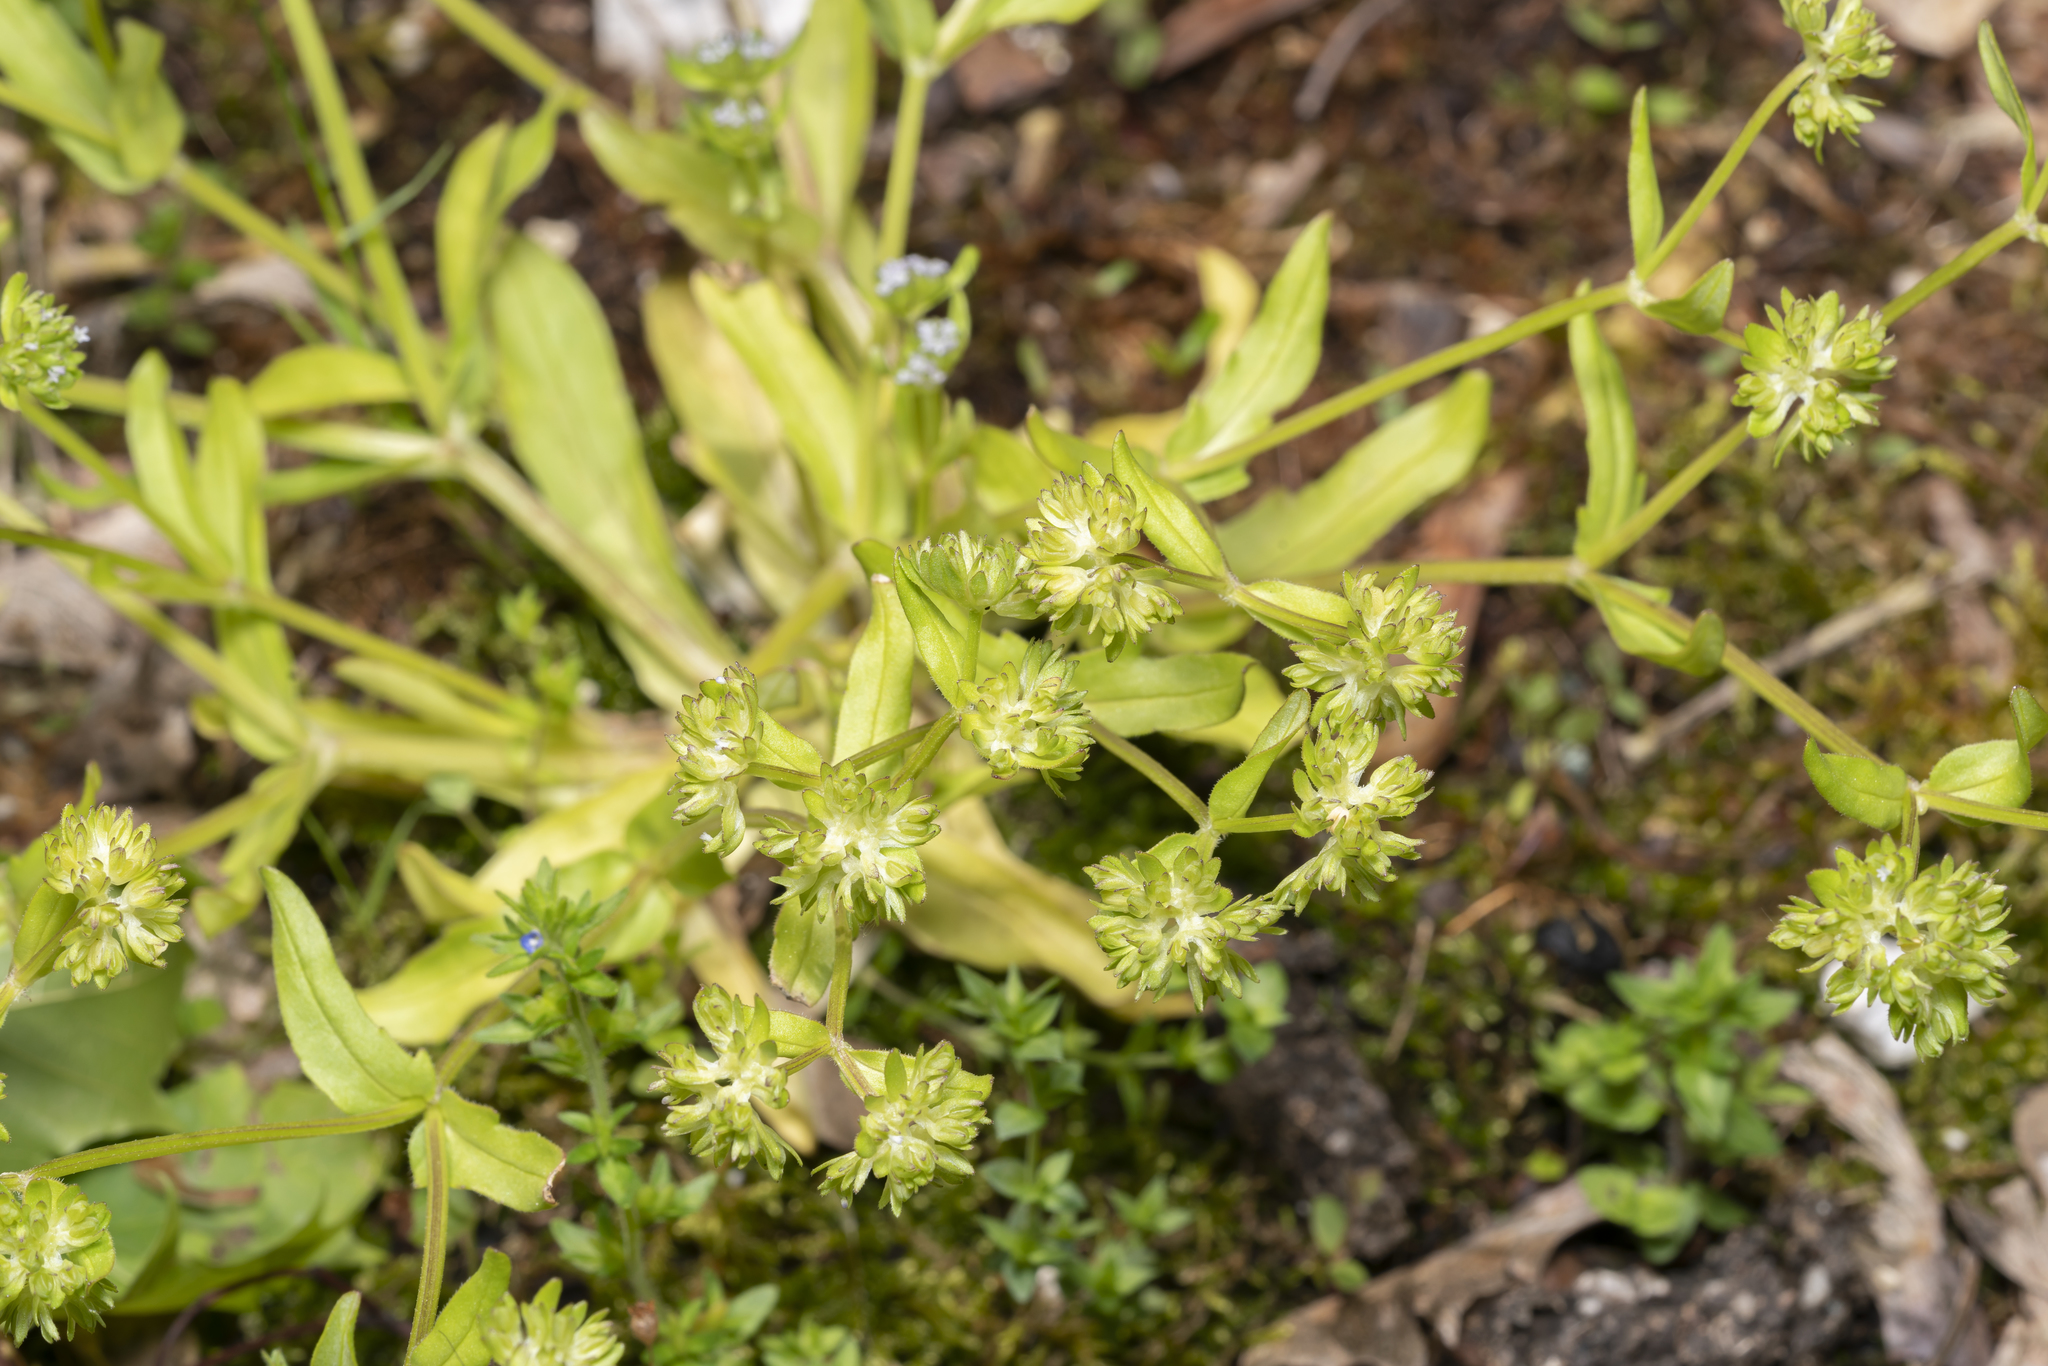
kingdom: Plantae
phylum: Tracheophyta
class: Magnoliopsida
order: Dipsacales
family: Caprifoliaceae
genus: Valerianella
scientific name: Valerianella carinata
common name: Keeled-fruited cornsalad
